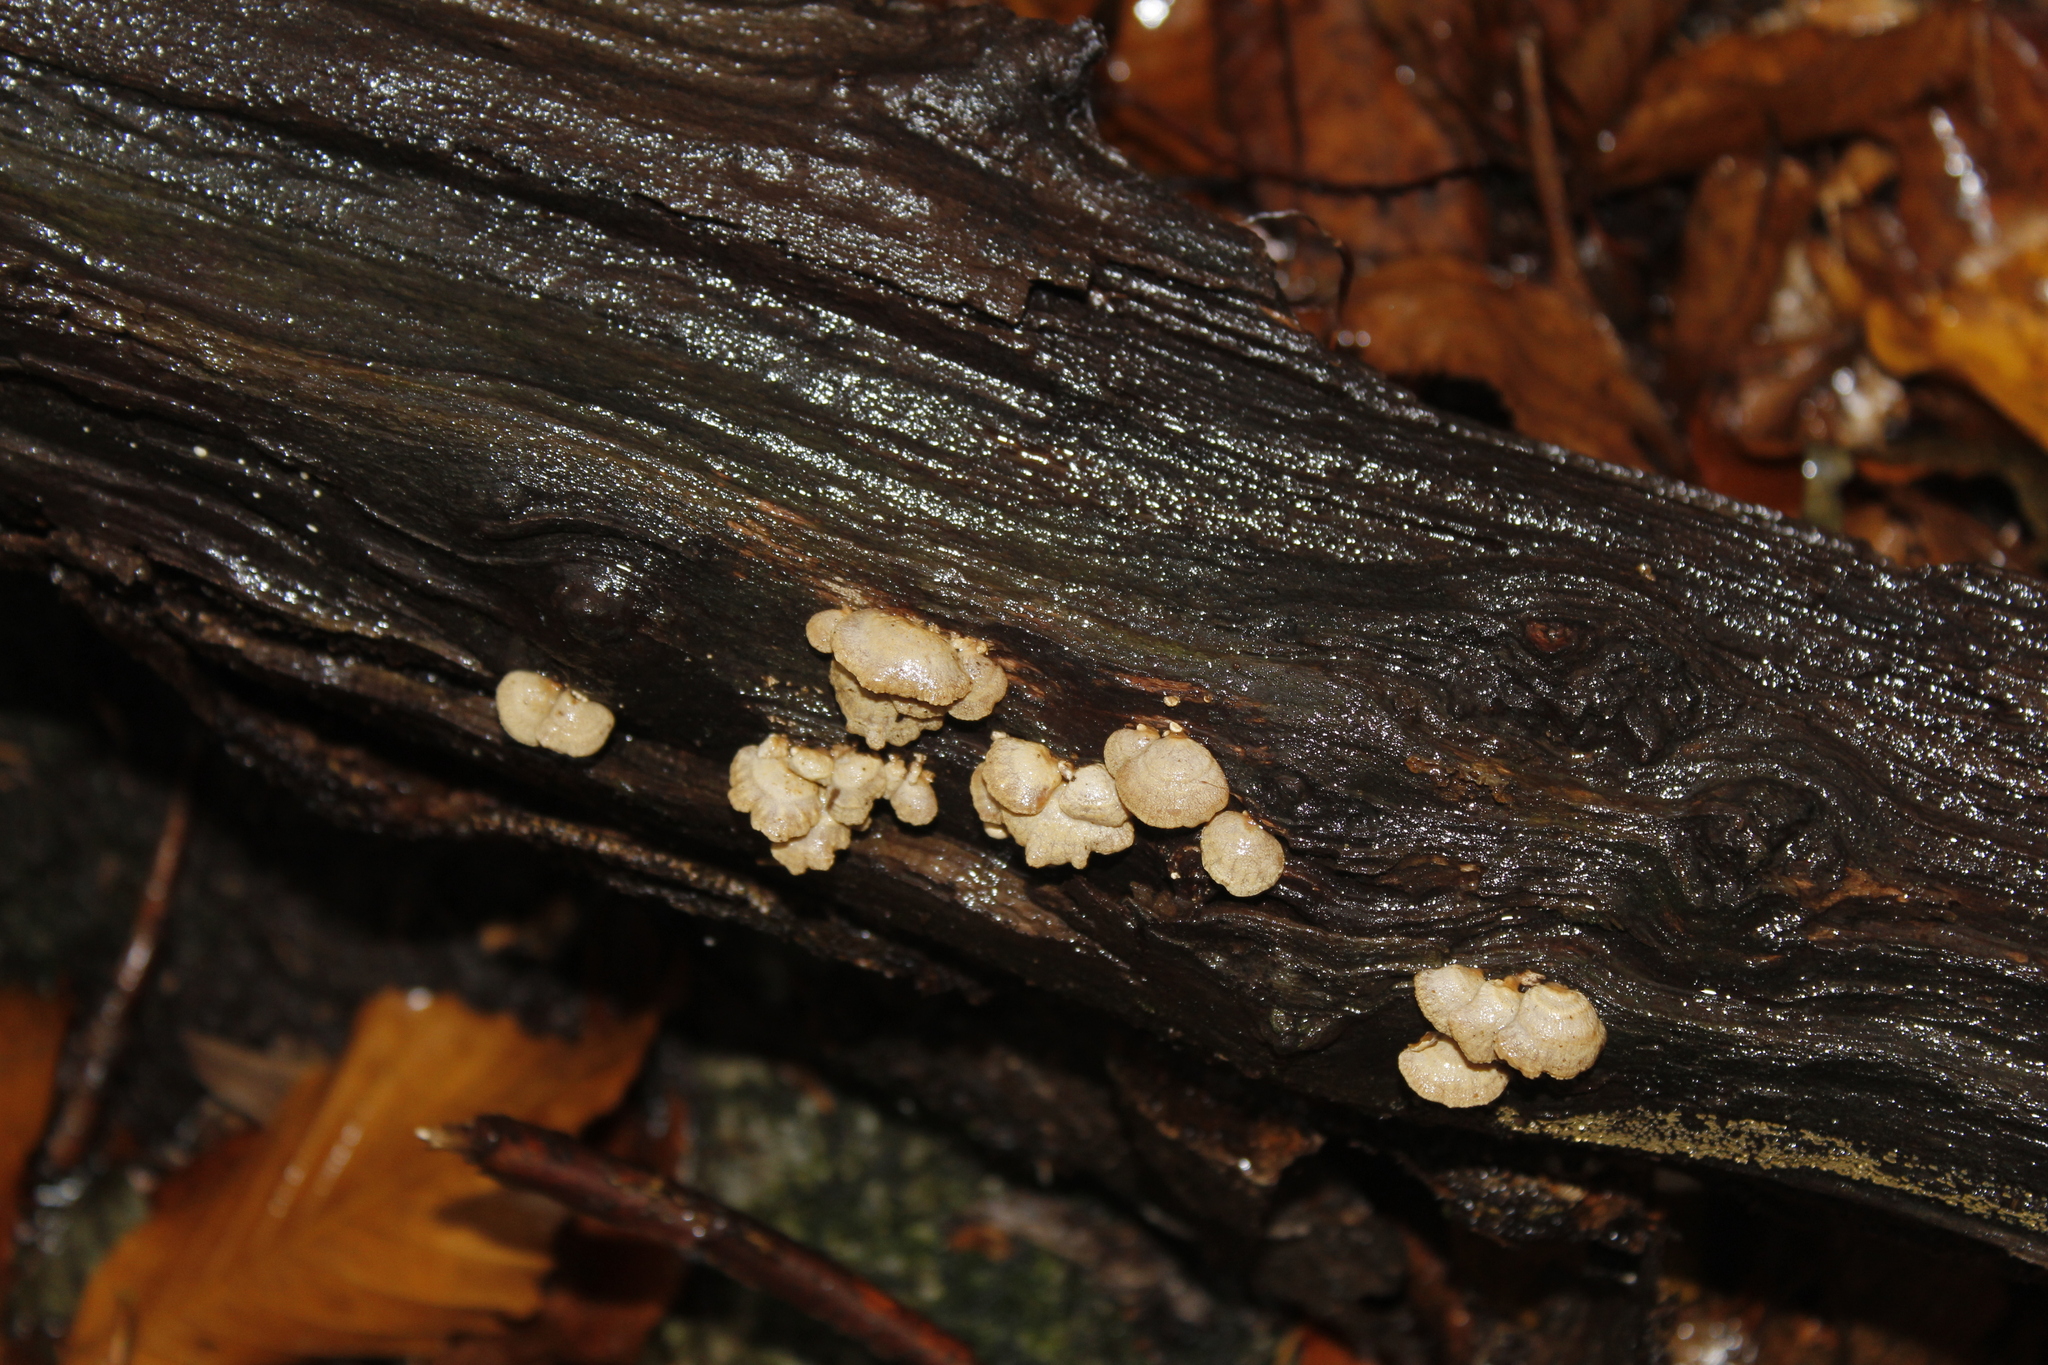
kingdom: Fungi
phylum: Basidiomycota
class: Agaricomycetes
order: Agaricales
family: Mycenaceae
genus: Panellus
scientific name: Panellus stipticus
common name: Bitter oysterling
